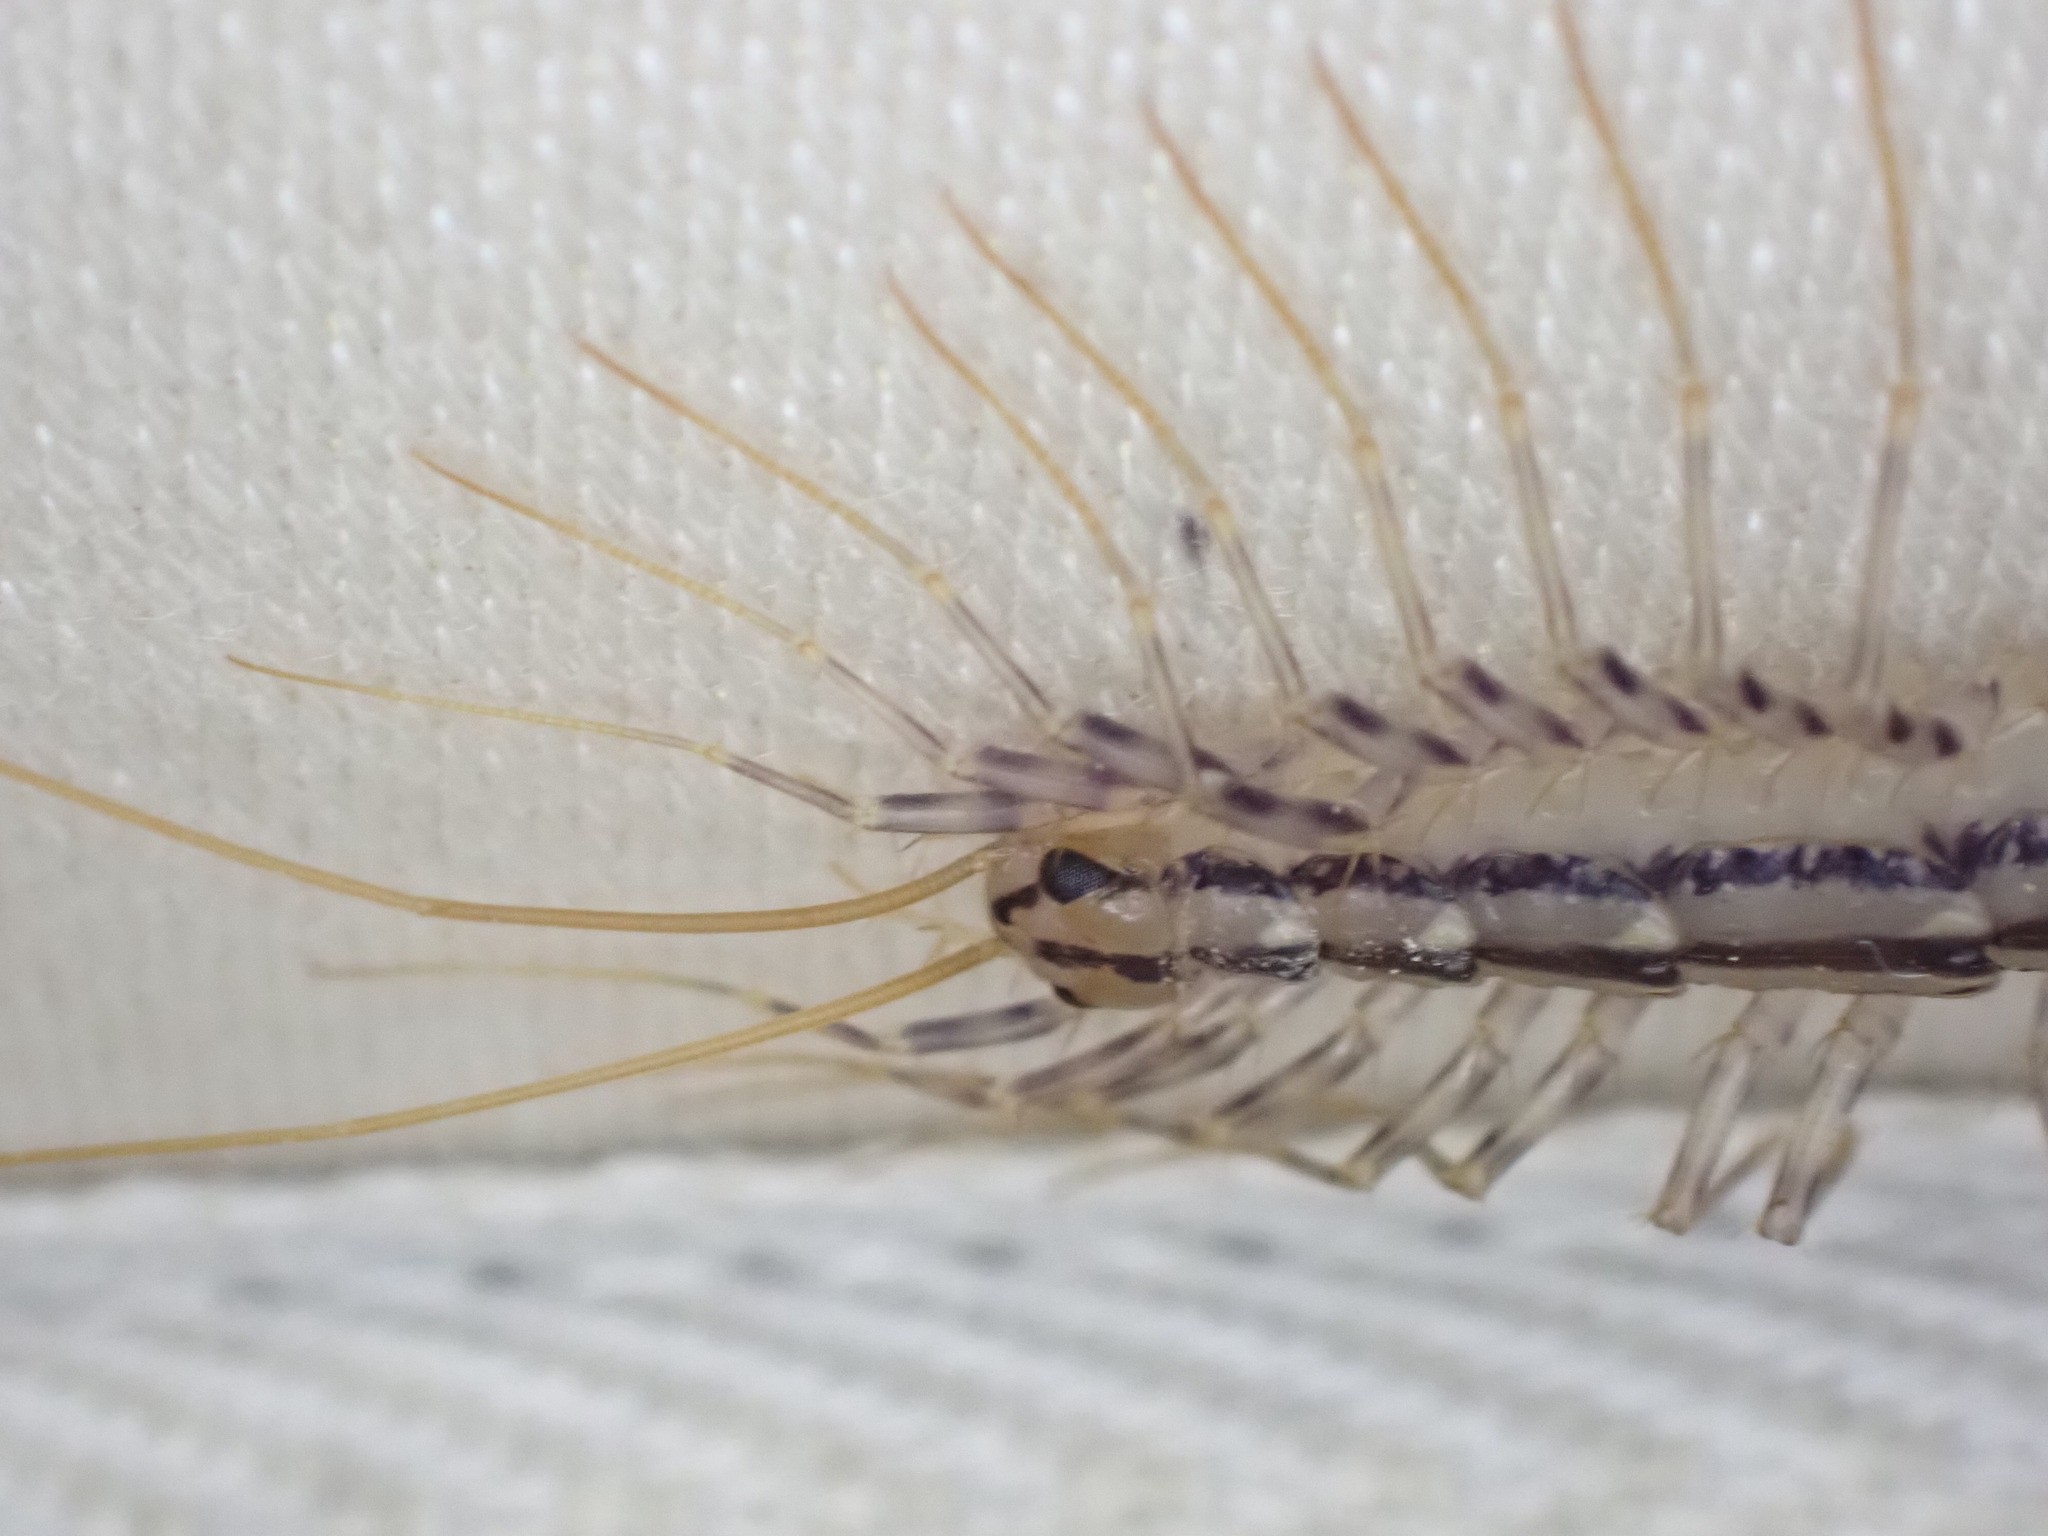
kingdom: Animalia
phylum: Arthropoda
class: Chilopoda
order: Scutigeromorpha
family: Scutigeridae
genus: Scutigera
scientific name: Scutigera coleoptrata
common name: House centipede
